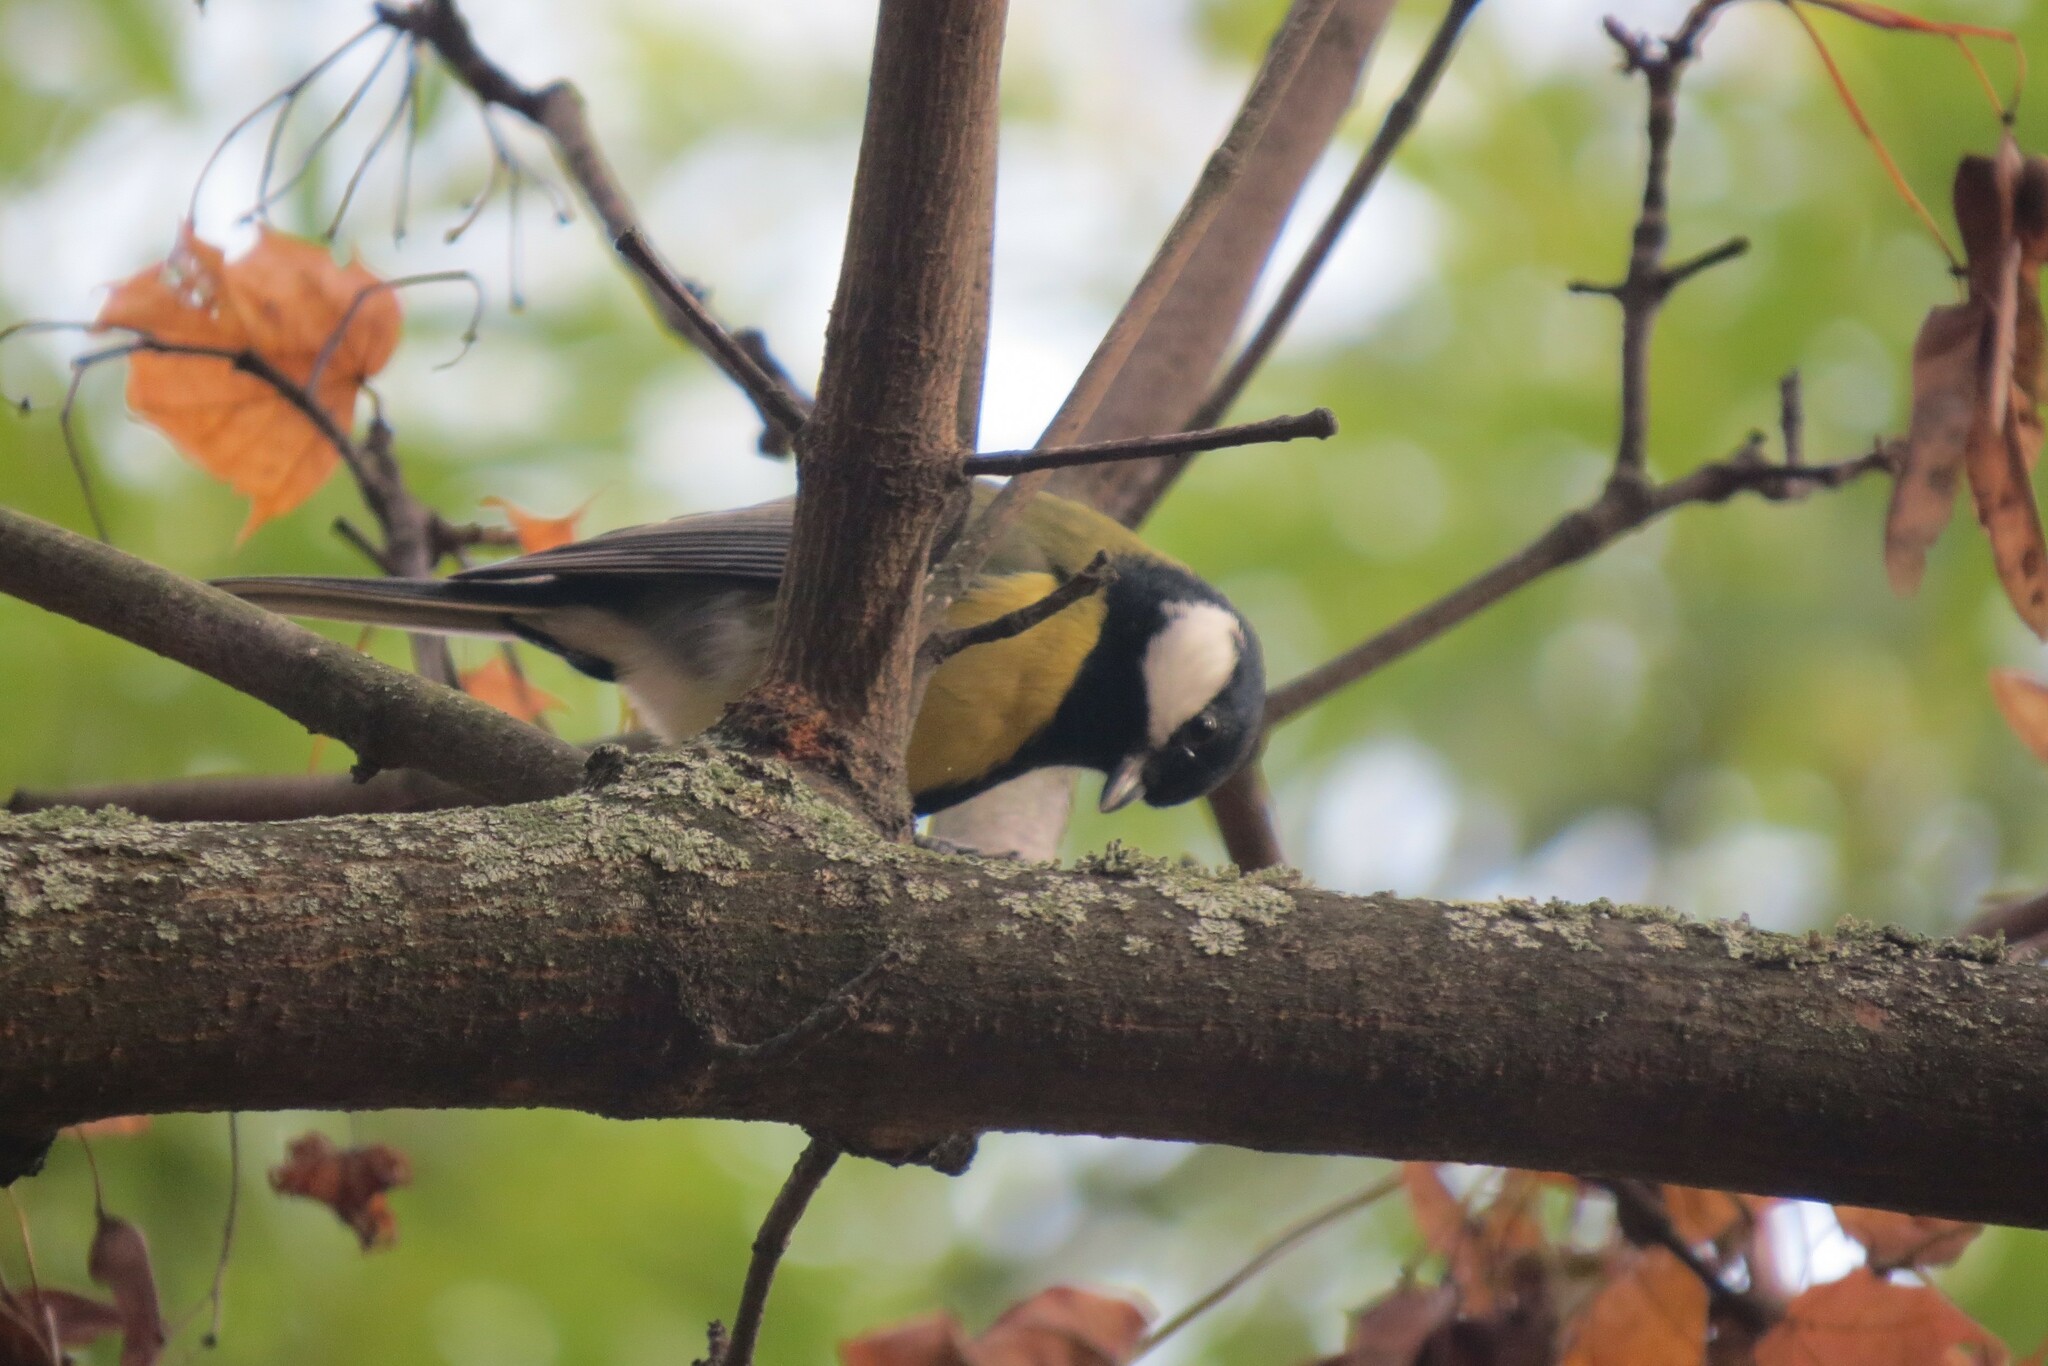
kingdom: Animalia
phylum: Chordata
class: Aves
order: Passeriformes
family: Paridae
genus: Parus
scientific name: Parus major
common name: Great tit
